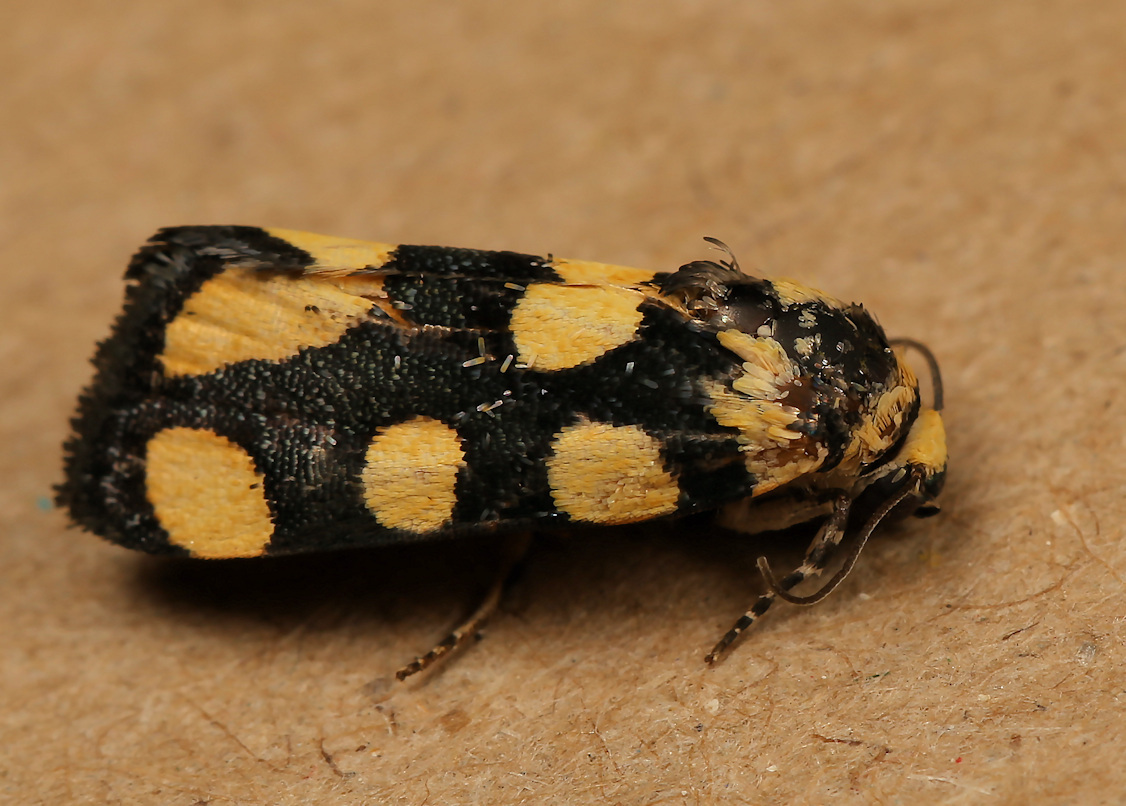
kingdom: Animalia
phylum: Arthropoda
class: Insecta
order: Lepidoptera
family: Noctuidae
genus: Acontia
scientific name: Acontia guttifera
